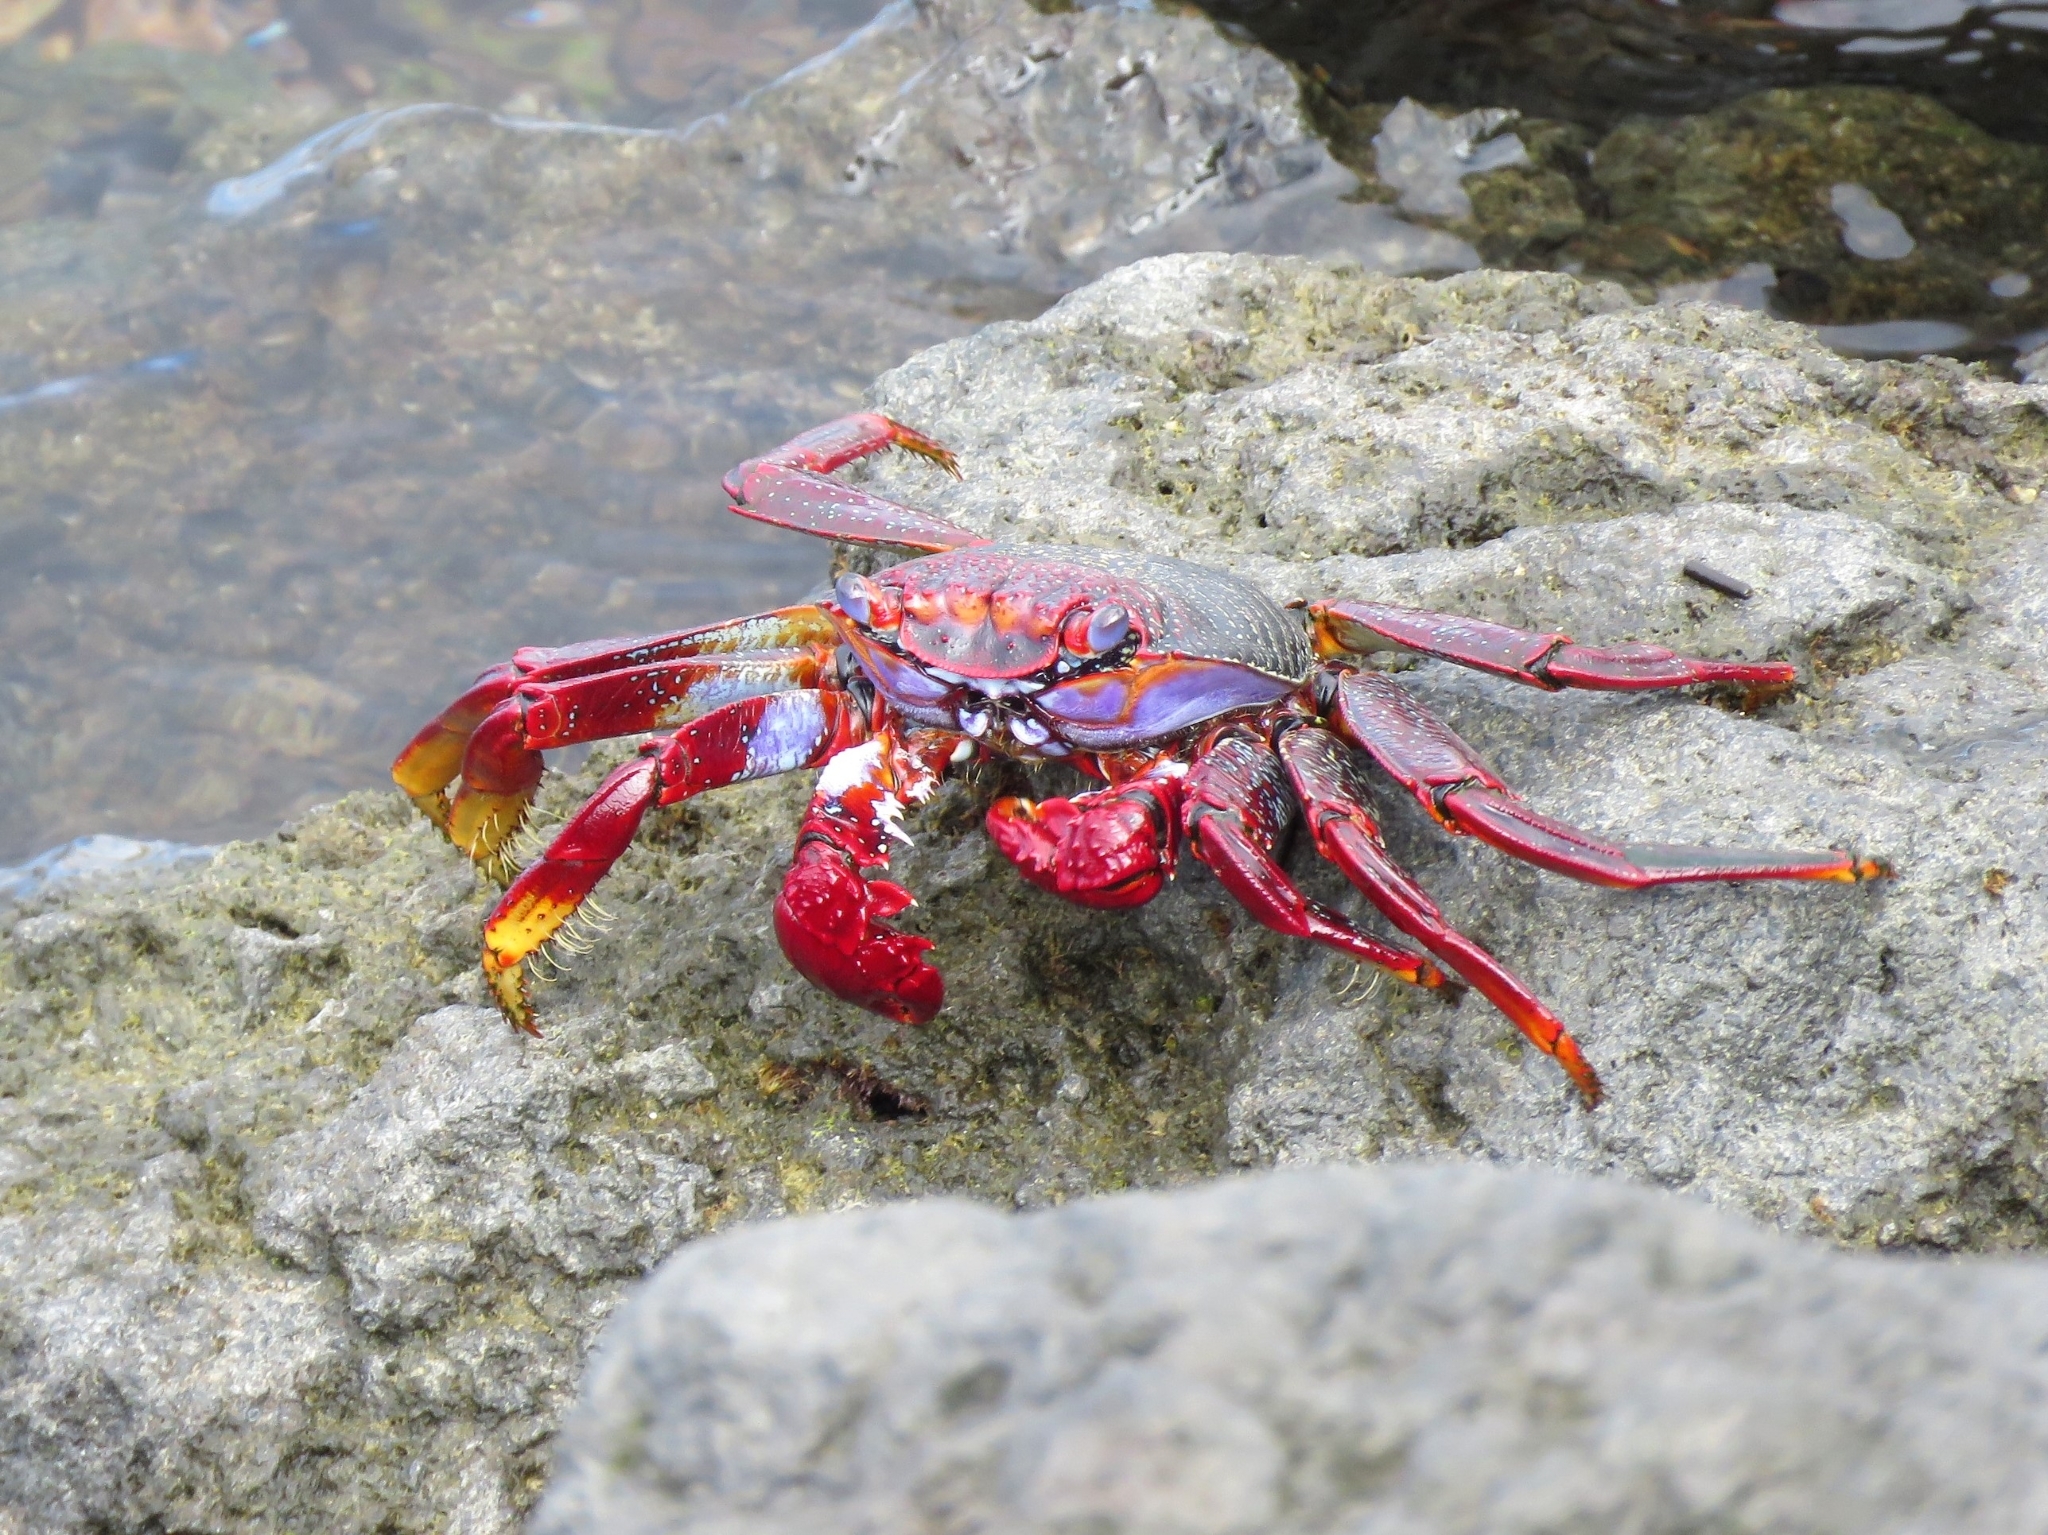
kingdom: Animalia
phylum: Arthropoda
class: Malacostraca
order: Decapoda
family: Grapsidae
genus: Grapsus
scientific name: Grapsus adscensionis
